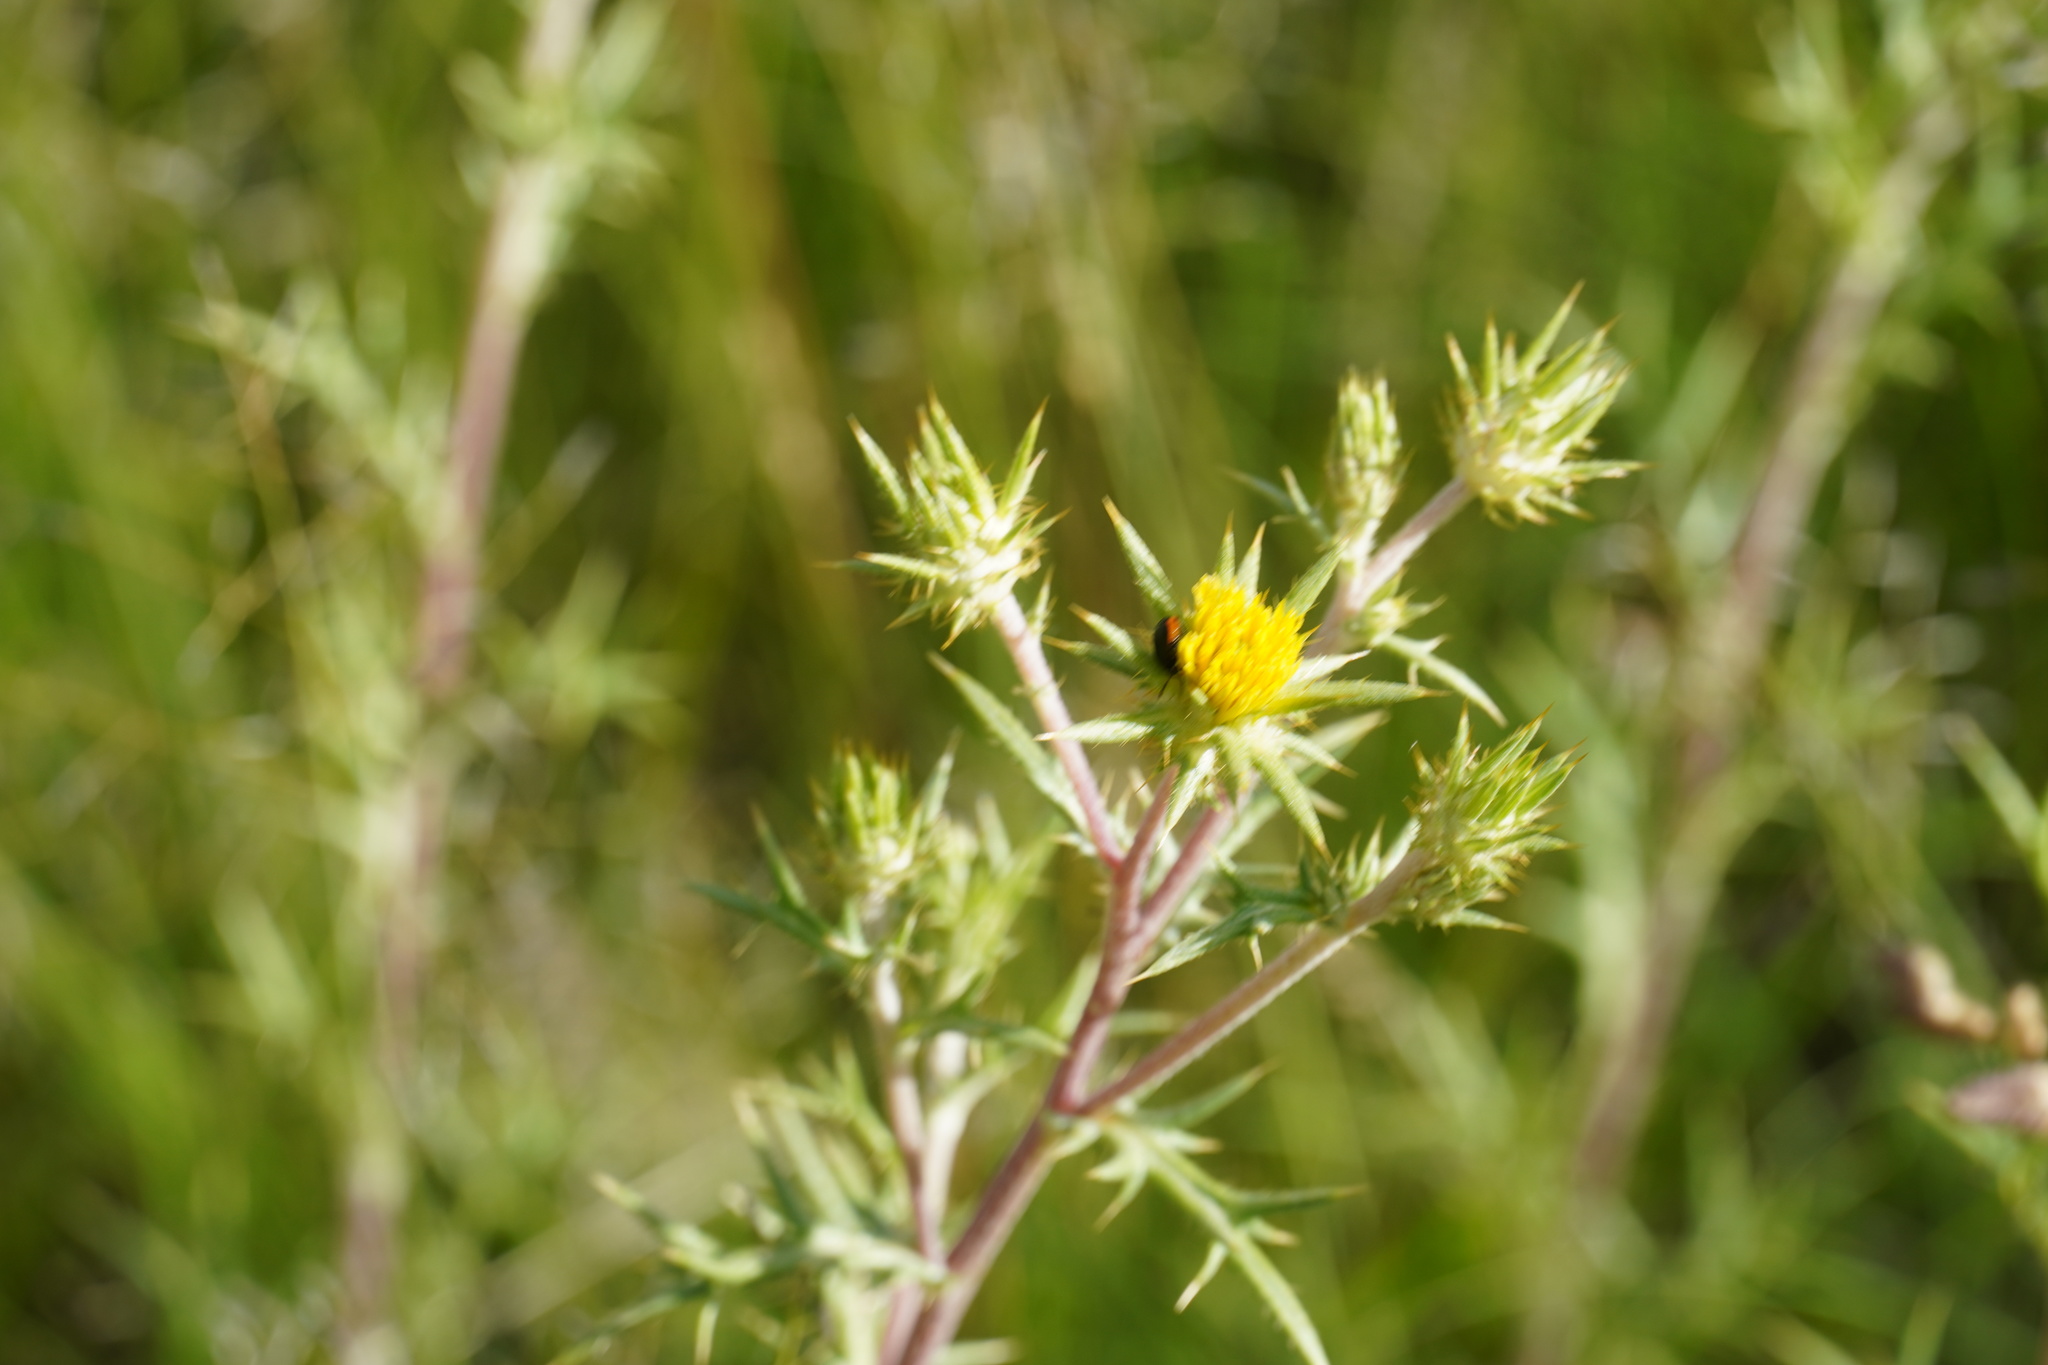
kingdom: Plantae
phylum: Tracheophyta
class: Magnoliopsida
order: Asterales
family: Asteraceae
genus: Berkheya
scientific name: Berkheya pinnatifida
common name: Lobed african thistle
